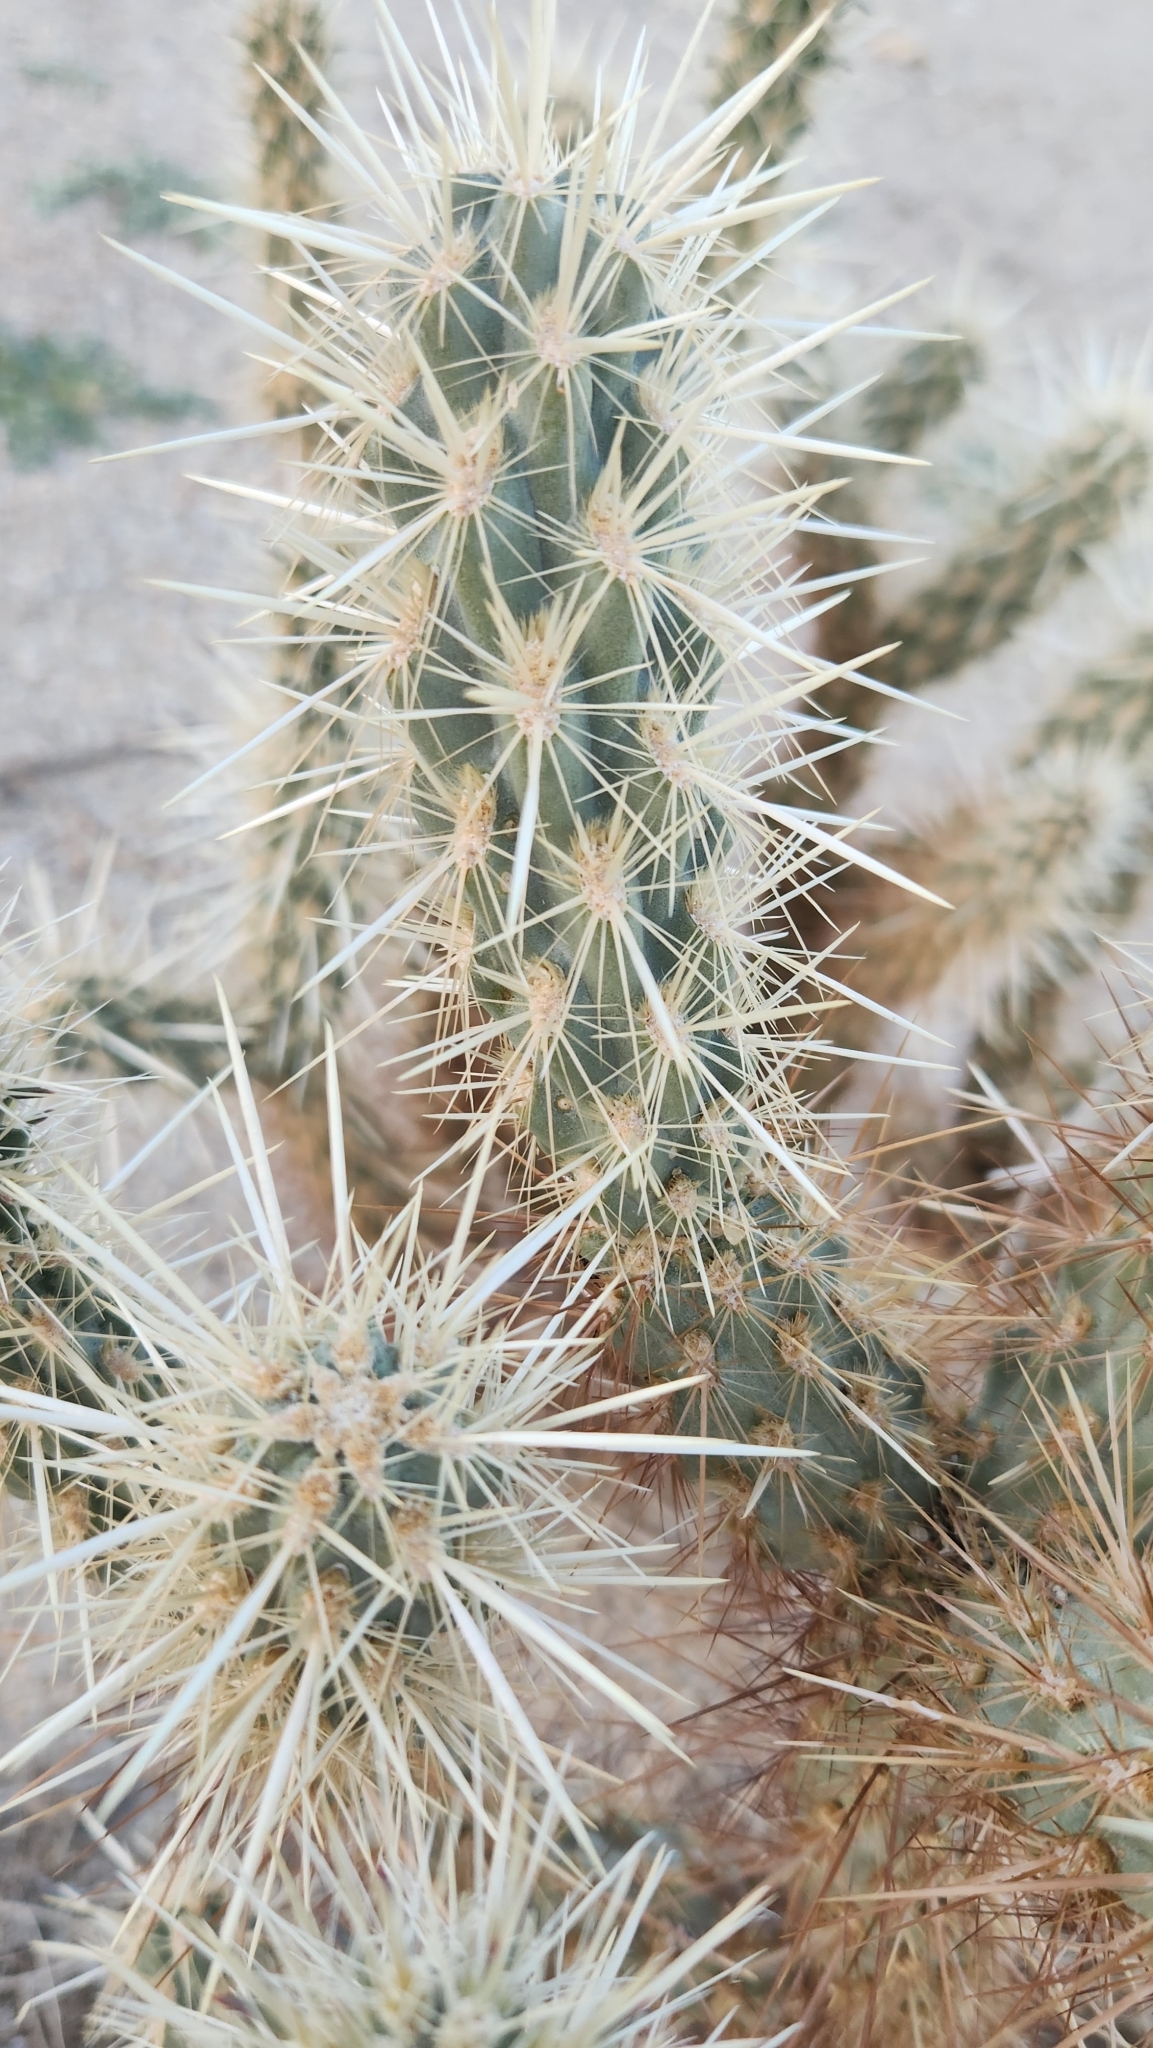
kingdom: Plantae
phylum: Tracheophyta
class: Magnoliopsida
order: Caryophyllales
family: Cactaceae
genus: Cylindropuntia
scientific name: Cylindropuntia ganderi
